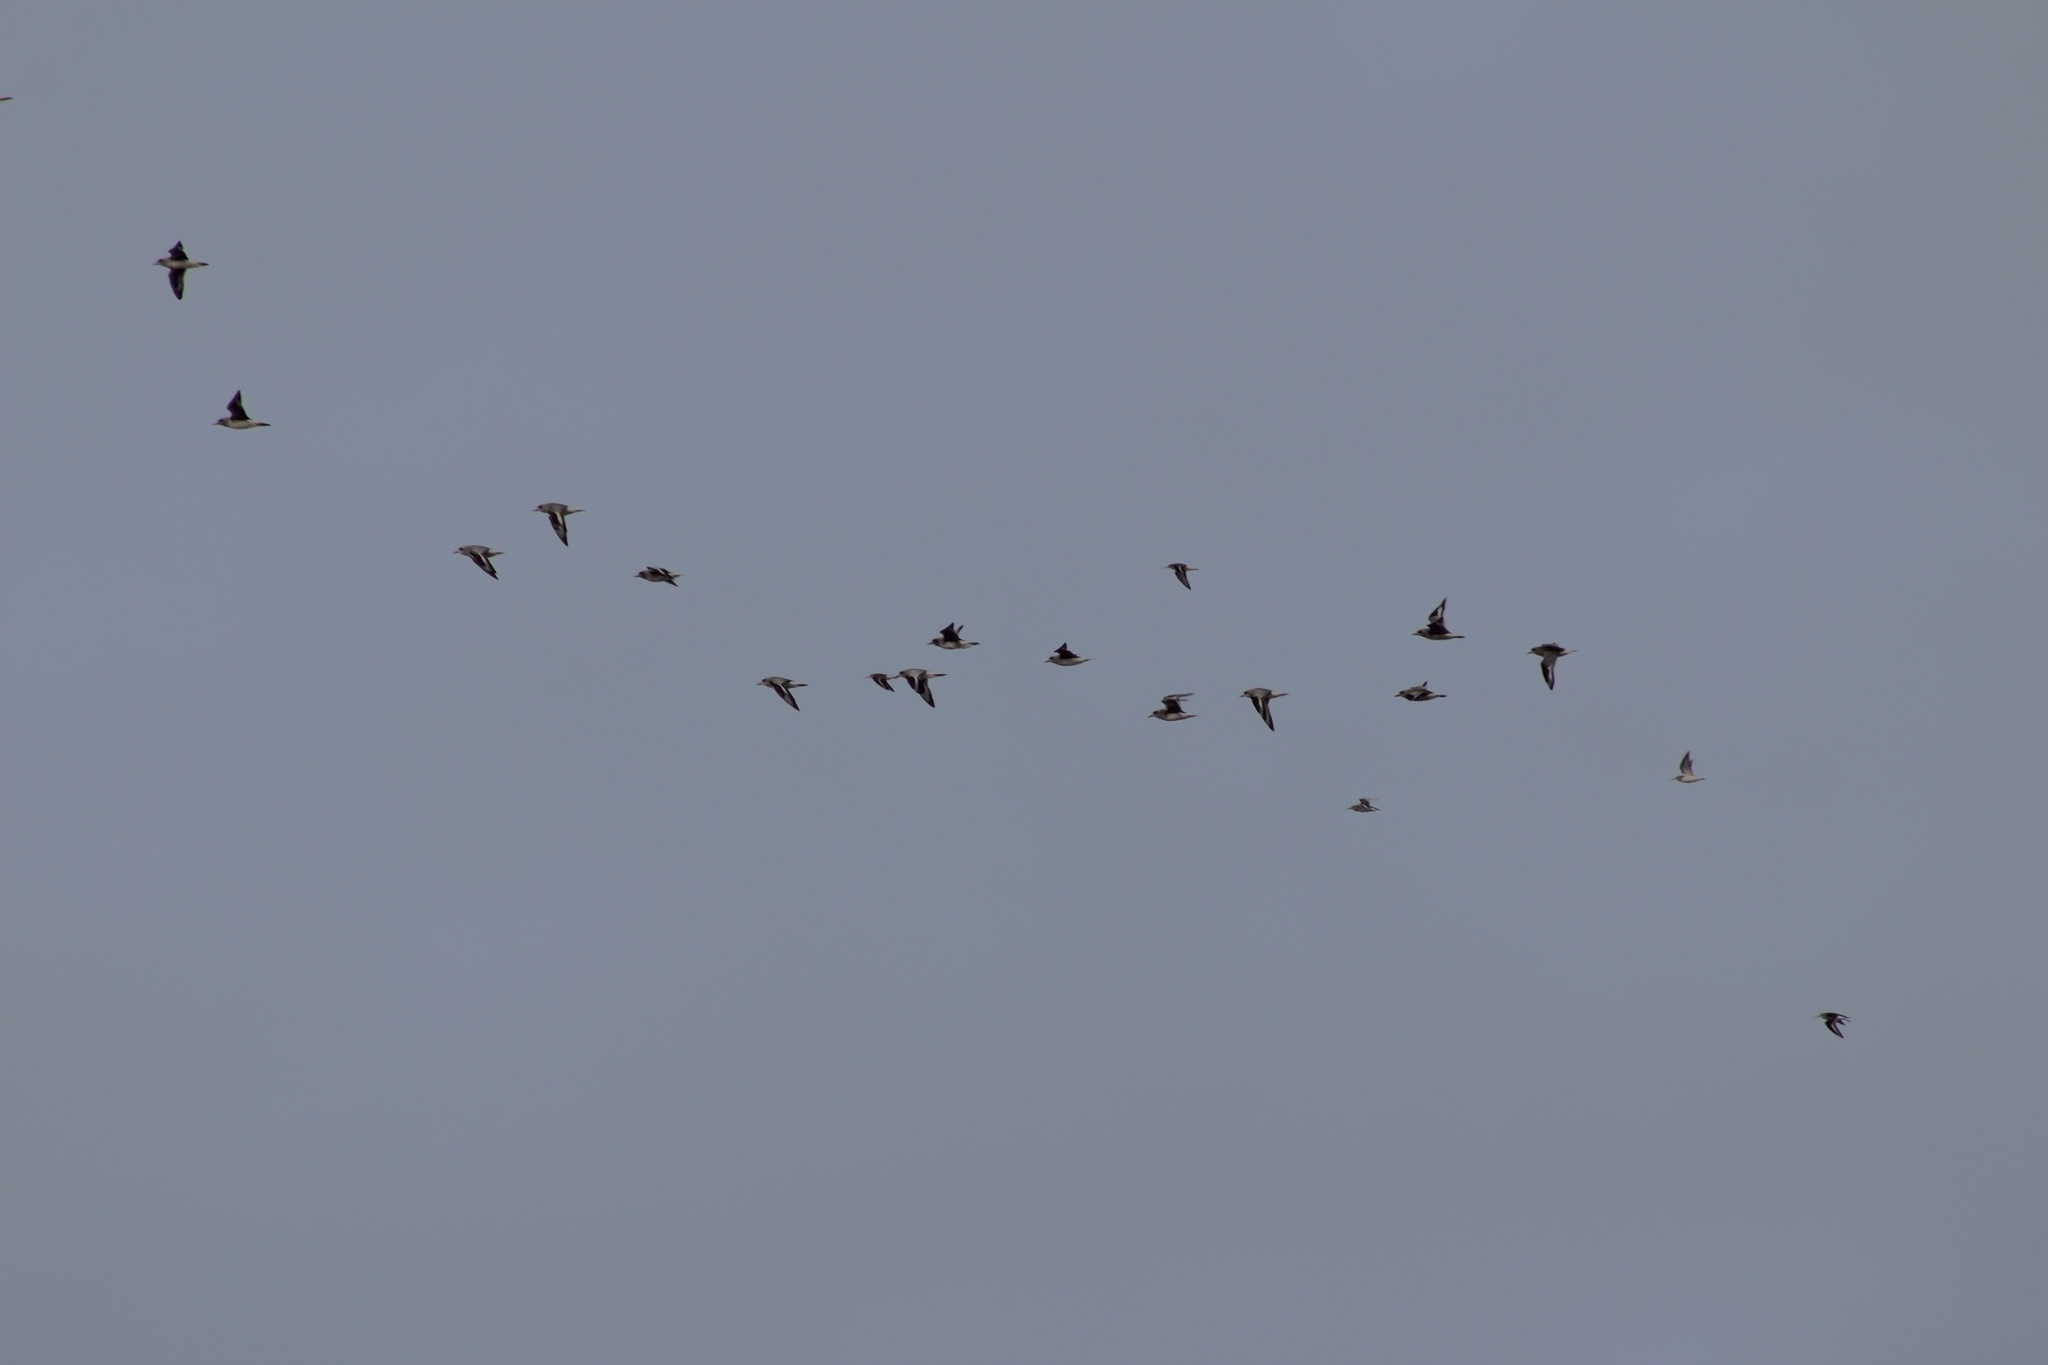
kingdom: Animalia
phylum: Chordata
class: Aves
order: Charadriiformes
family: Charadriidae
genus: Pluvialis
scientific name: Pluvialis squatarola
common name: Grey plover
